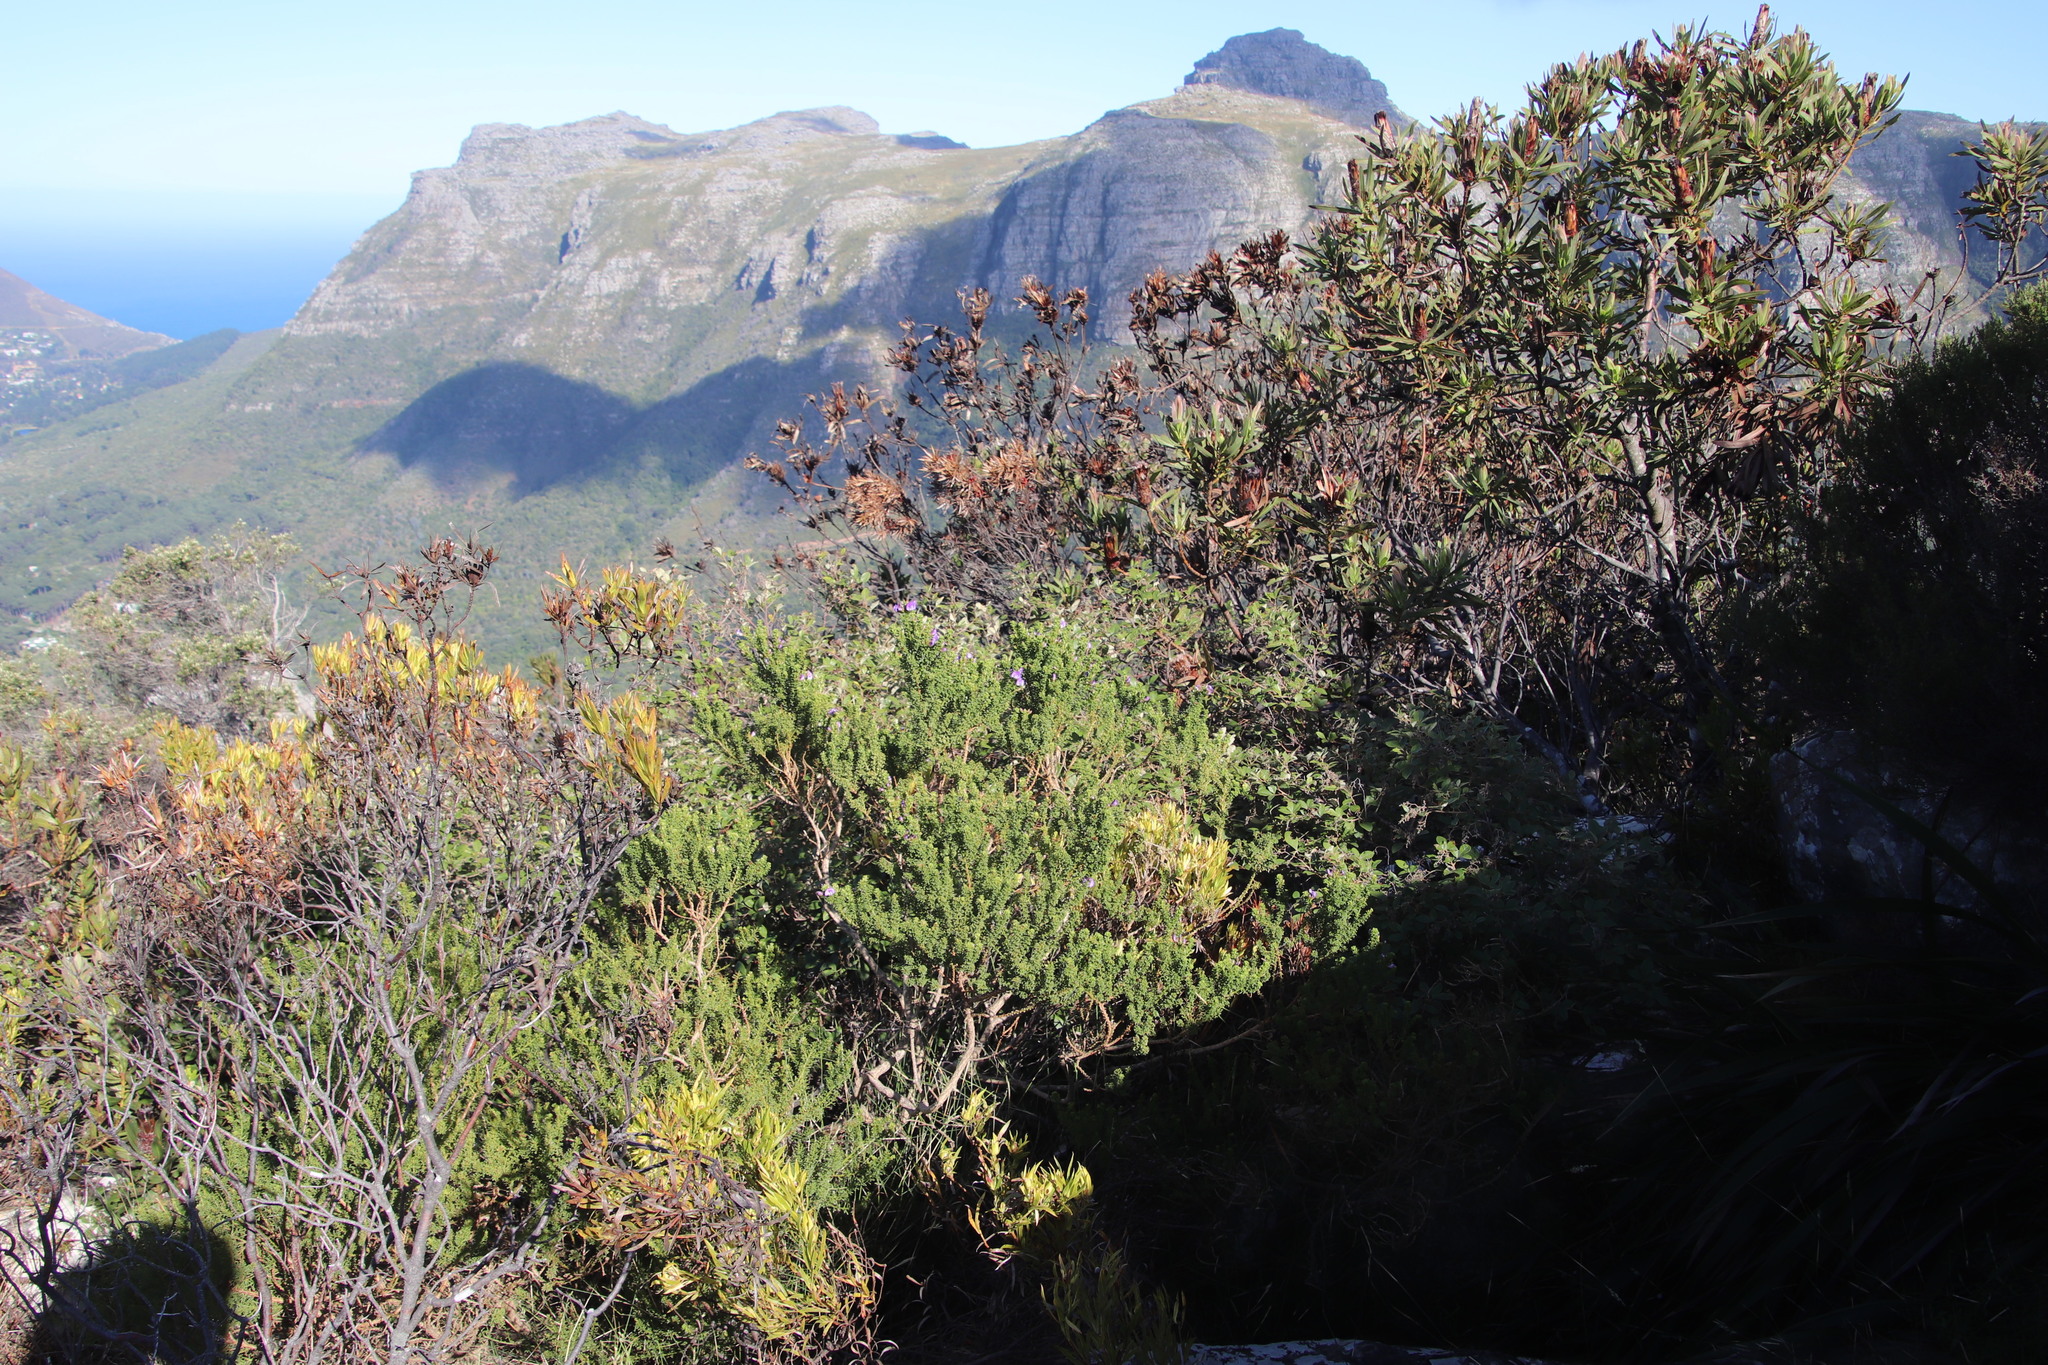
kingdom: Plantae
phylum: Tracheophyta
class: Magnoliopsida
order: Fabales
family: Fabaceae
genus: Psoralea
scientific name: Psoralea aculeata
